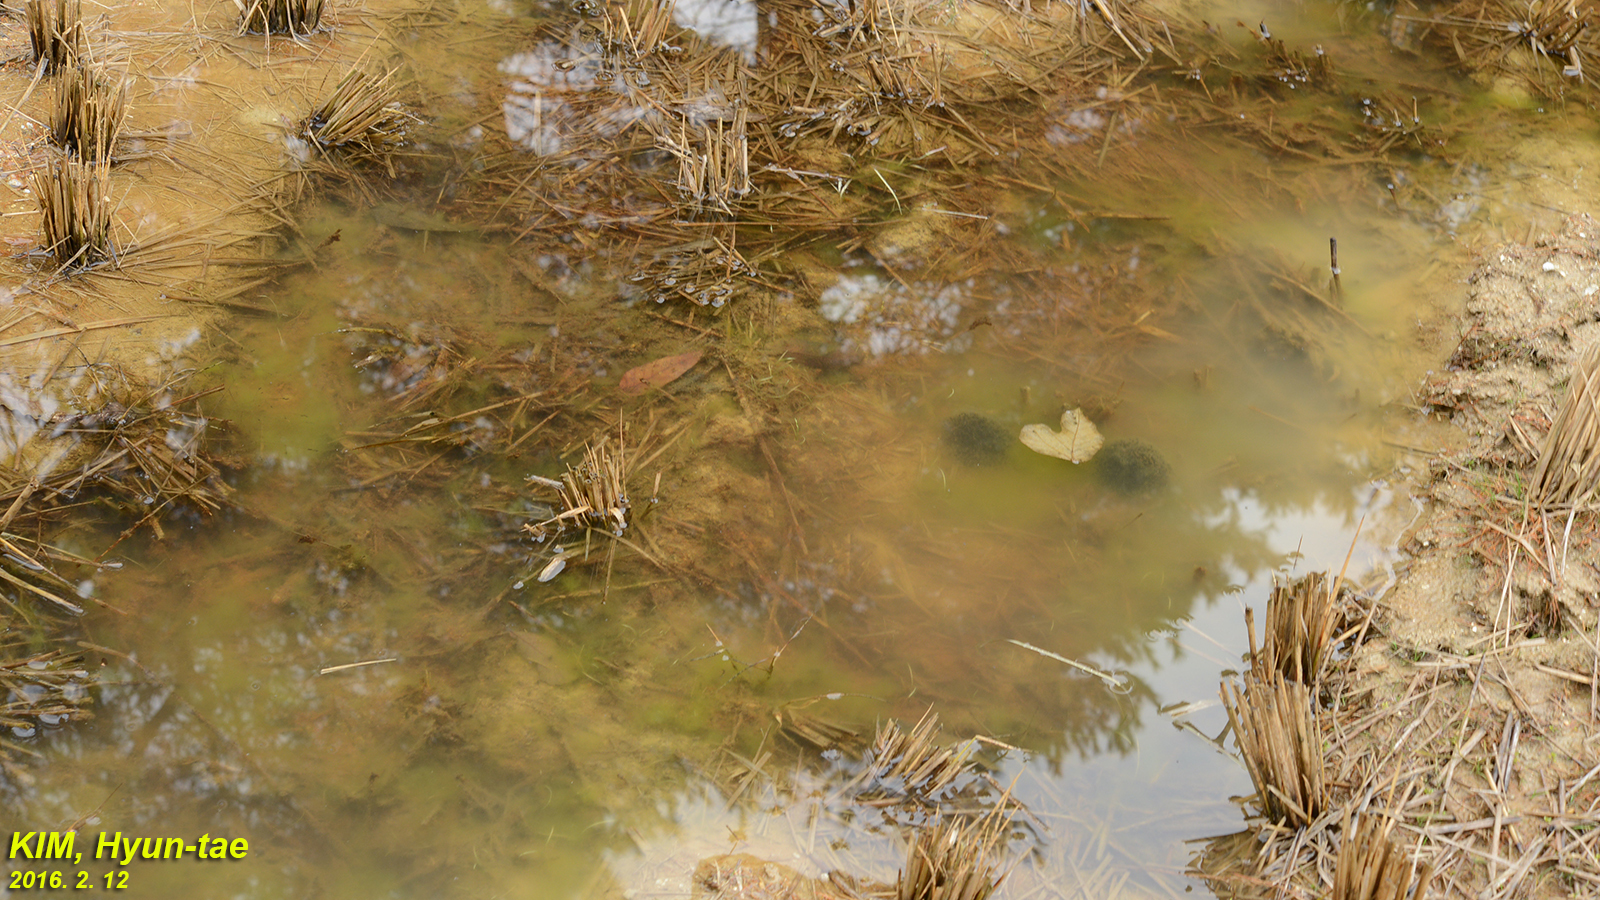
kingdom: Animalia
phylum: Chordata
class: Amphibia
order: Anura
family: Ranidae
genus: Rana
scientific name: Rana coreana
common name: Korean brown frog
